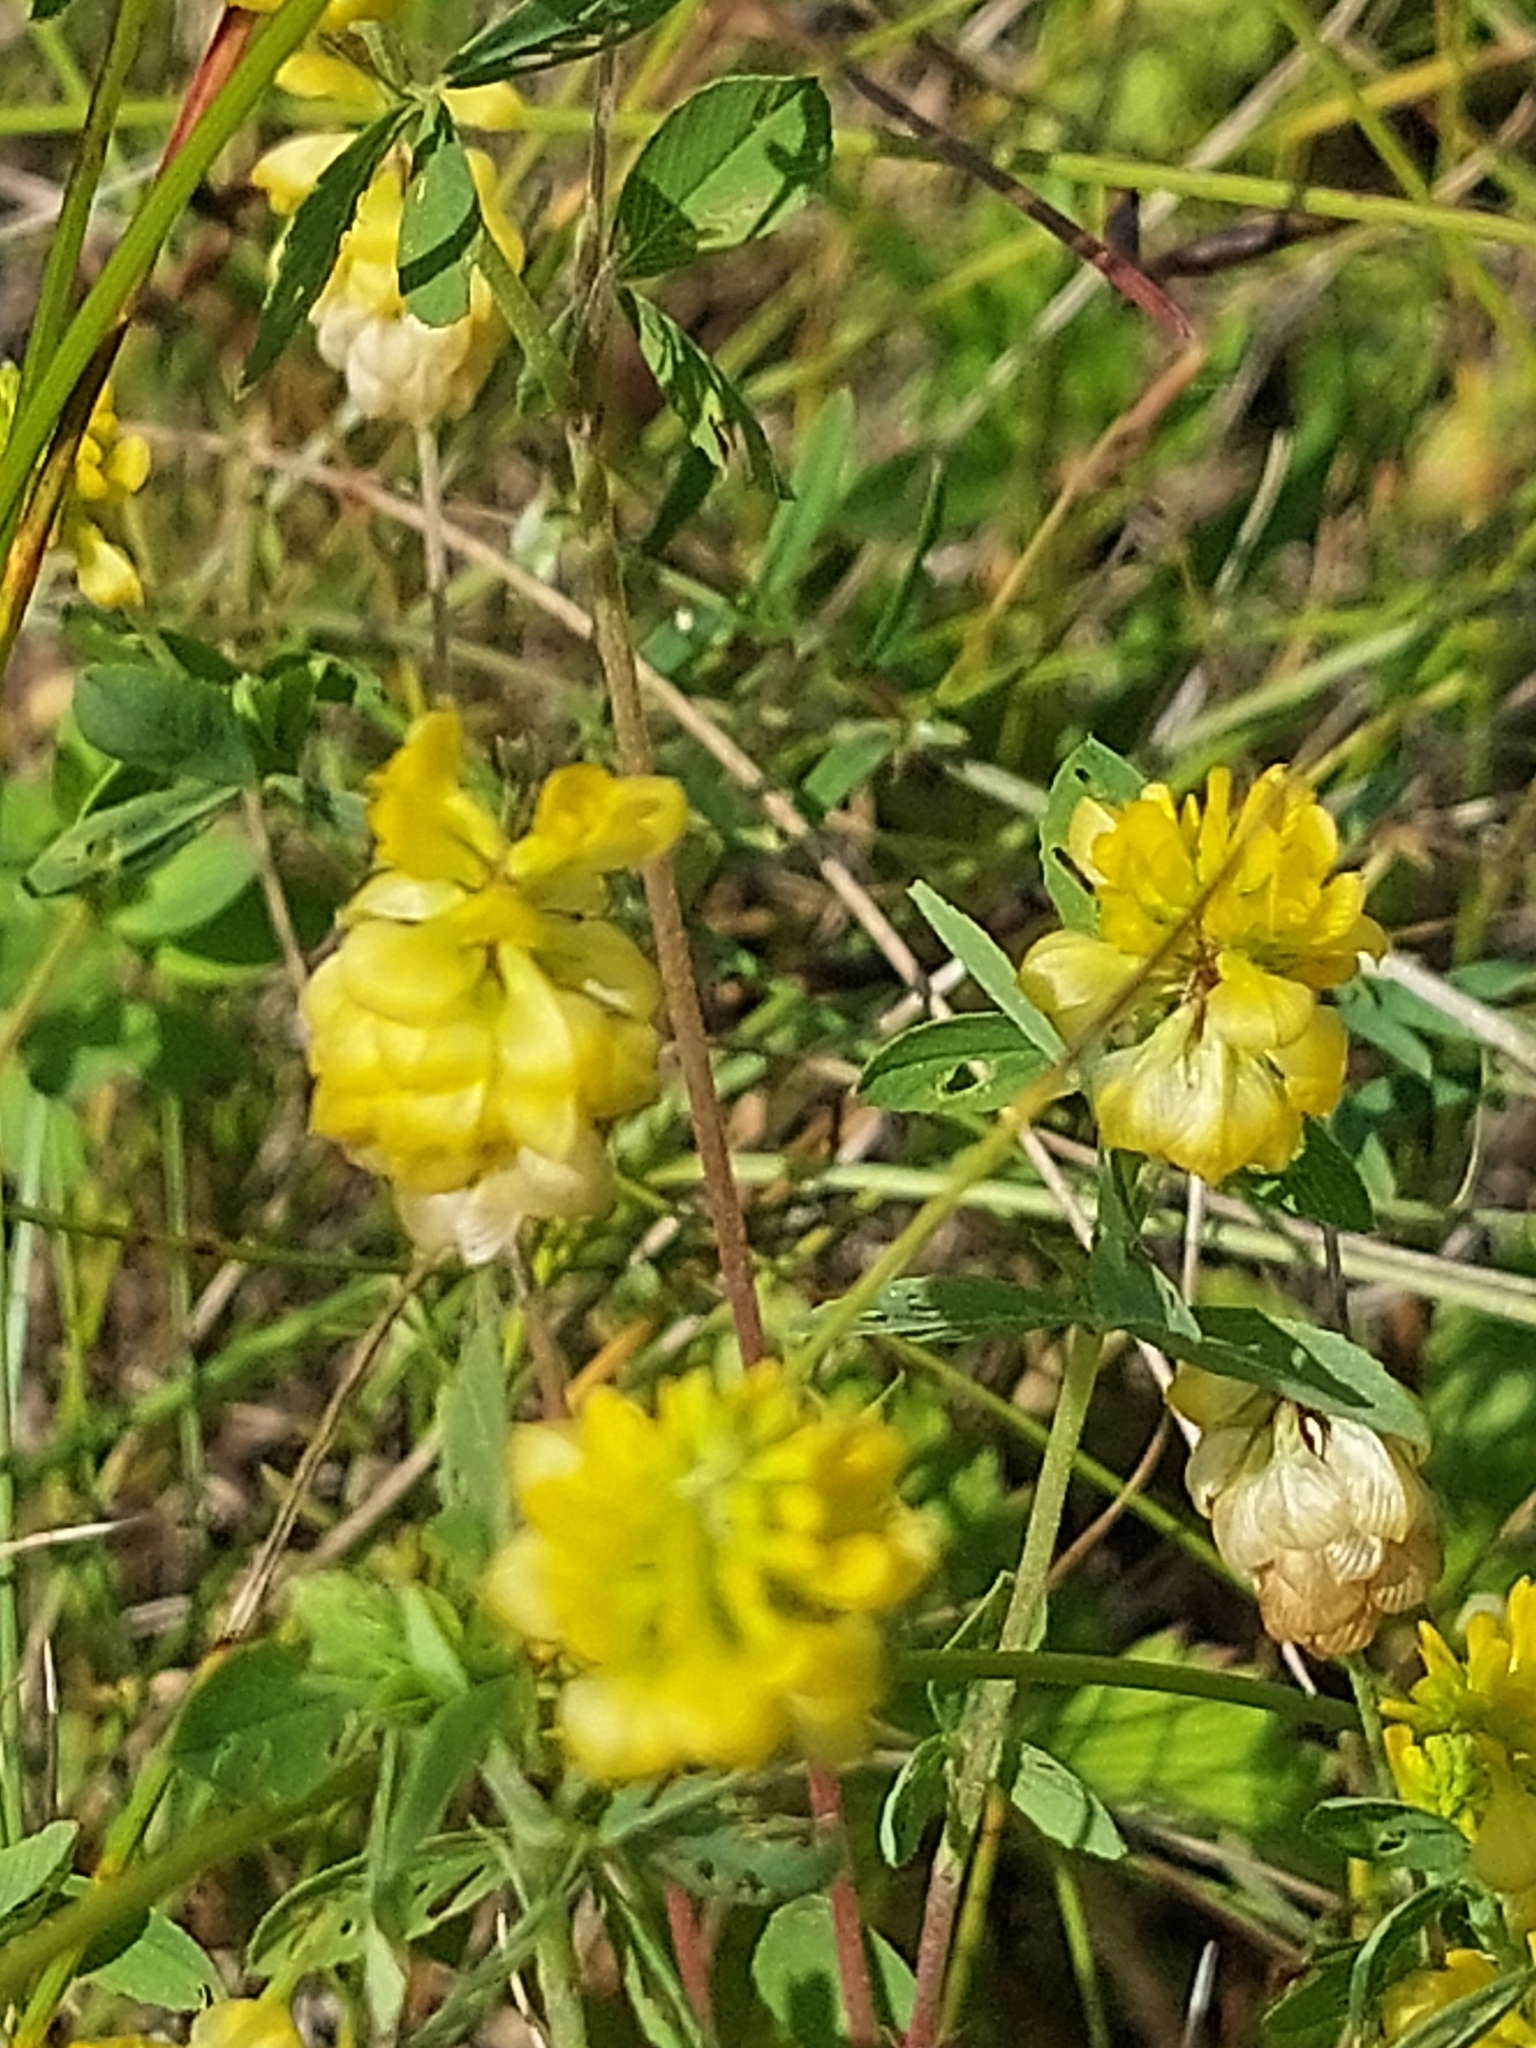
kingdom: Plantae
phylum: Tracheophyta
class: Magnoliopsida
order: Fabales
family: Fabaceae
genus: Trifolium
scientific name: Trifolium aureum
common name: Golden clover
